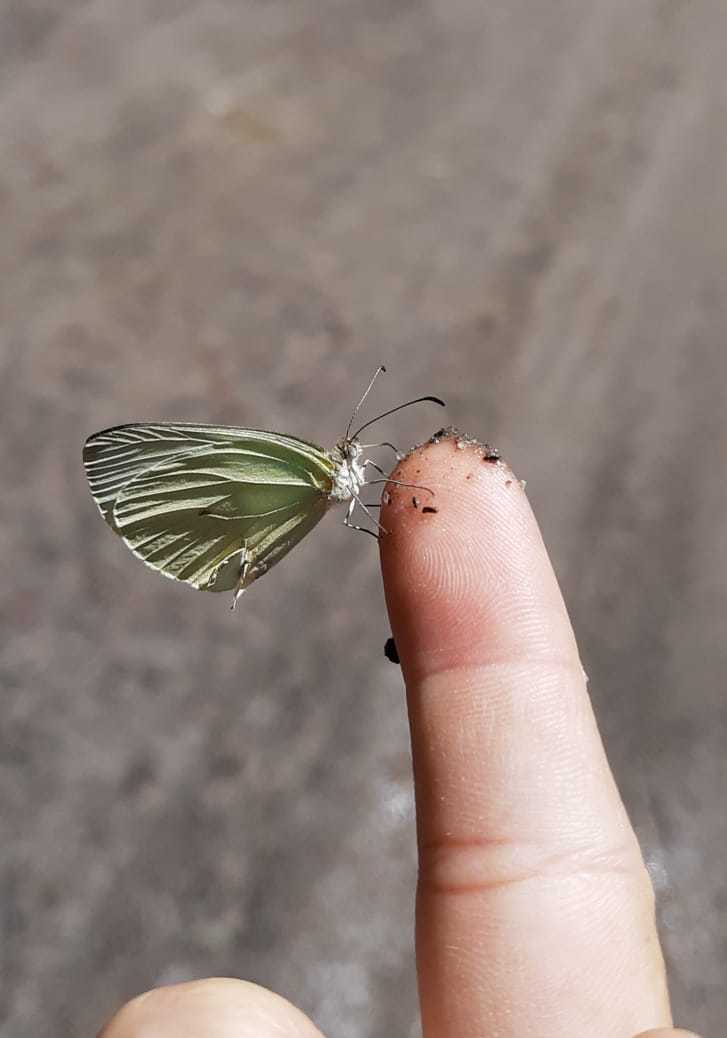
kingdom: Animalia
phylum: Arthropoda
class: Insecta
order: Lepidoptera
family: Pieridae
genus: Pseudopieris
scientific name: Pseudopieris nehemia
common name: Clean mimic-white
